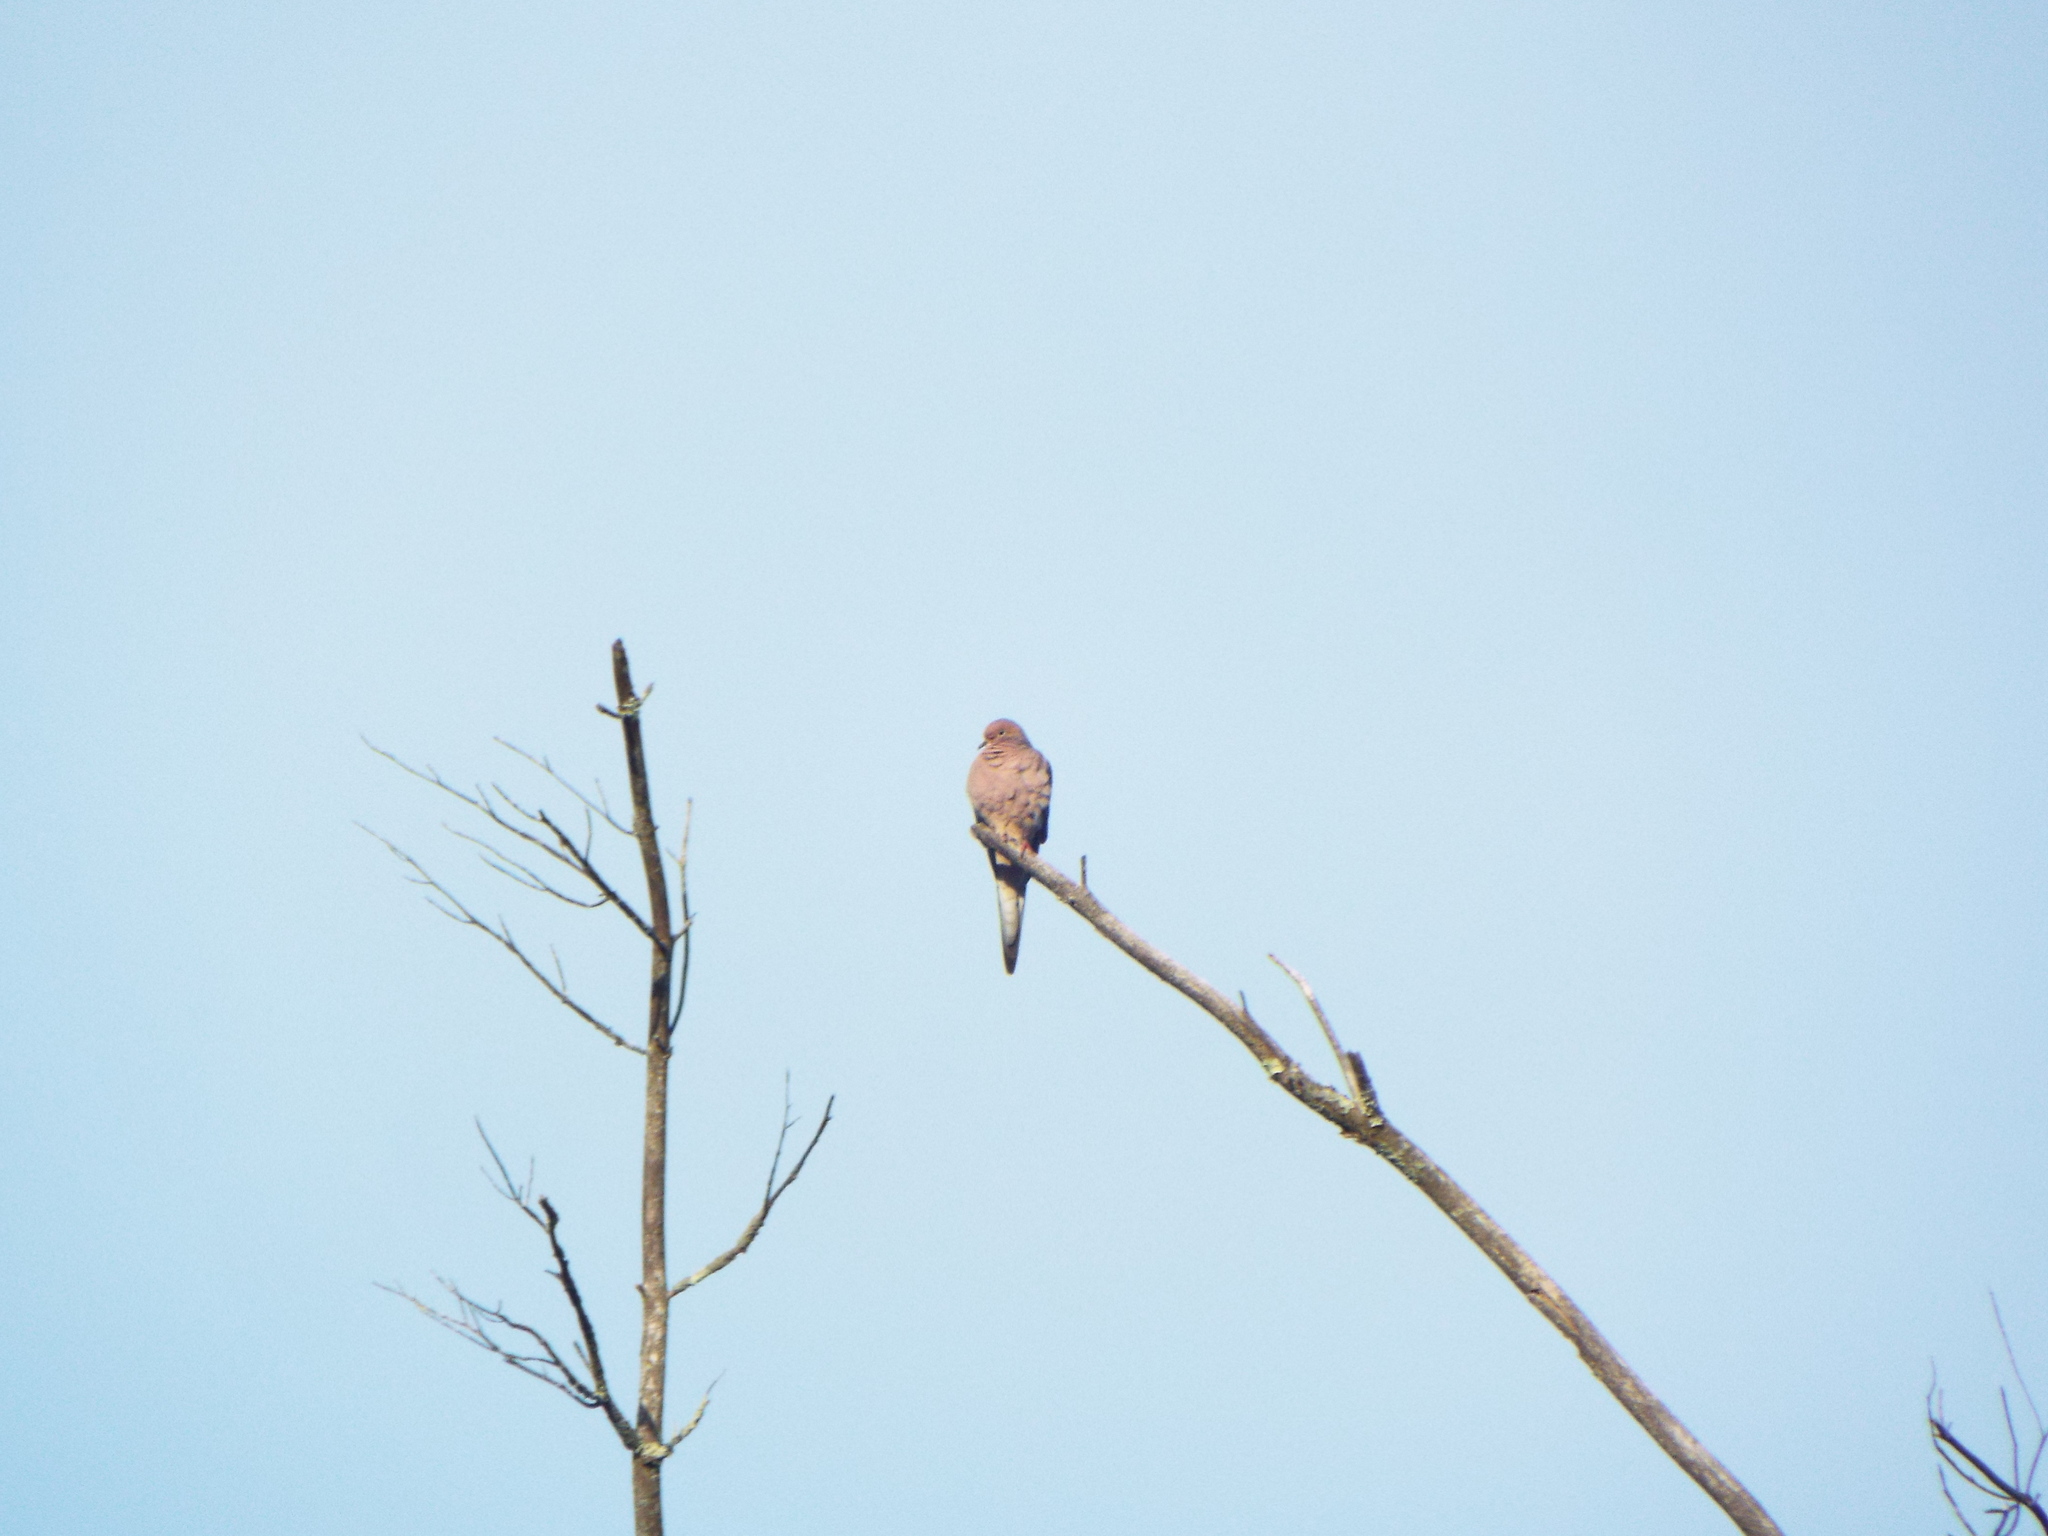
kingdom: Animalia
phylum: Chordata
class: Aves
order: Columbiformes
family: Columbidae
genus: Zenaida
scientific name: Zenaida macroura
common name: Mourning dove
